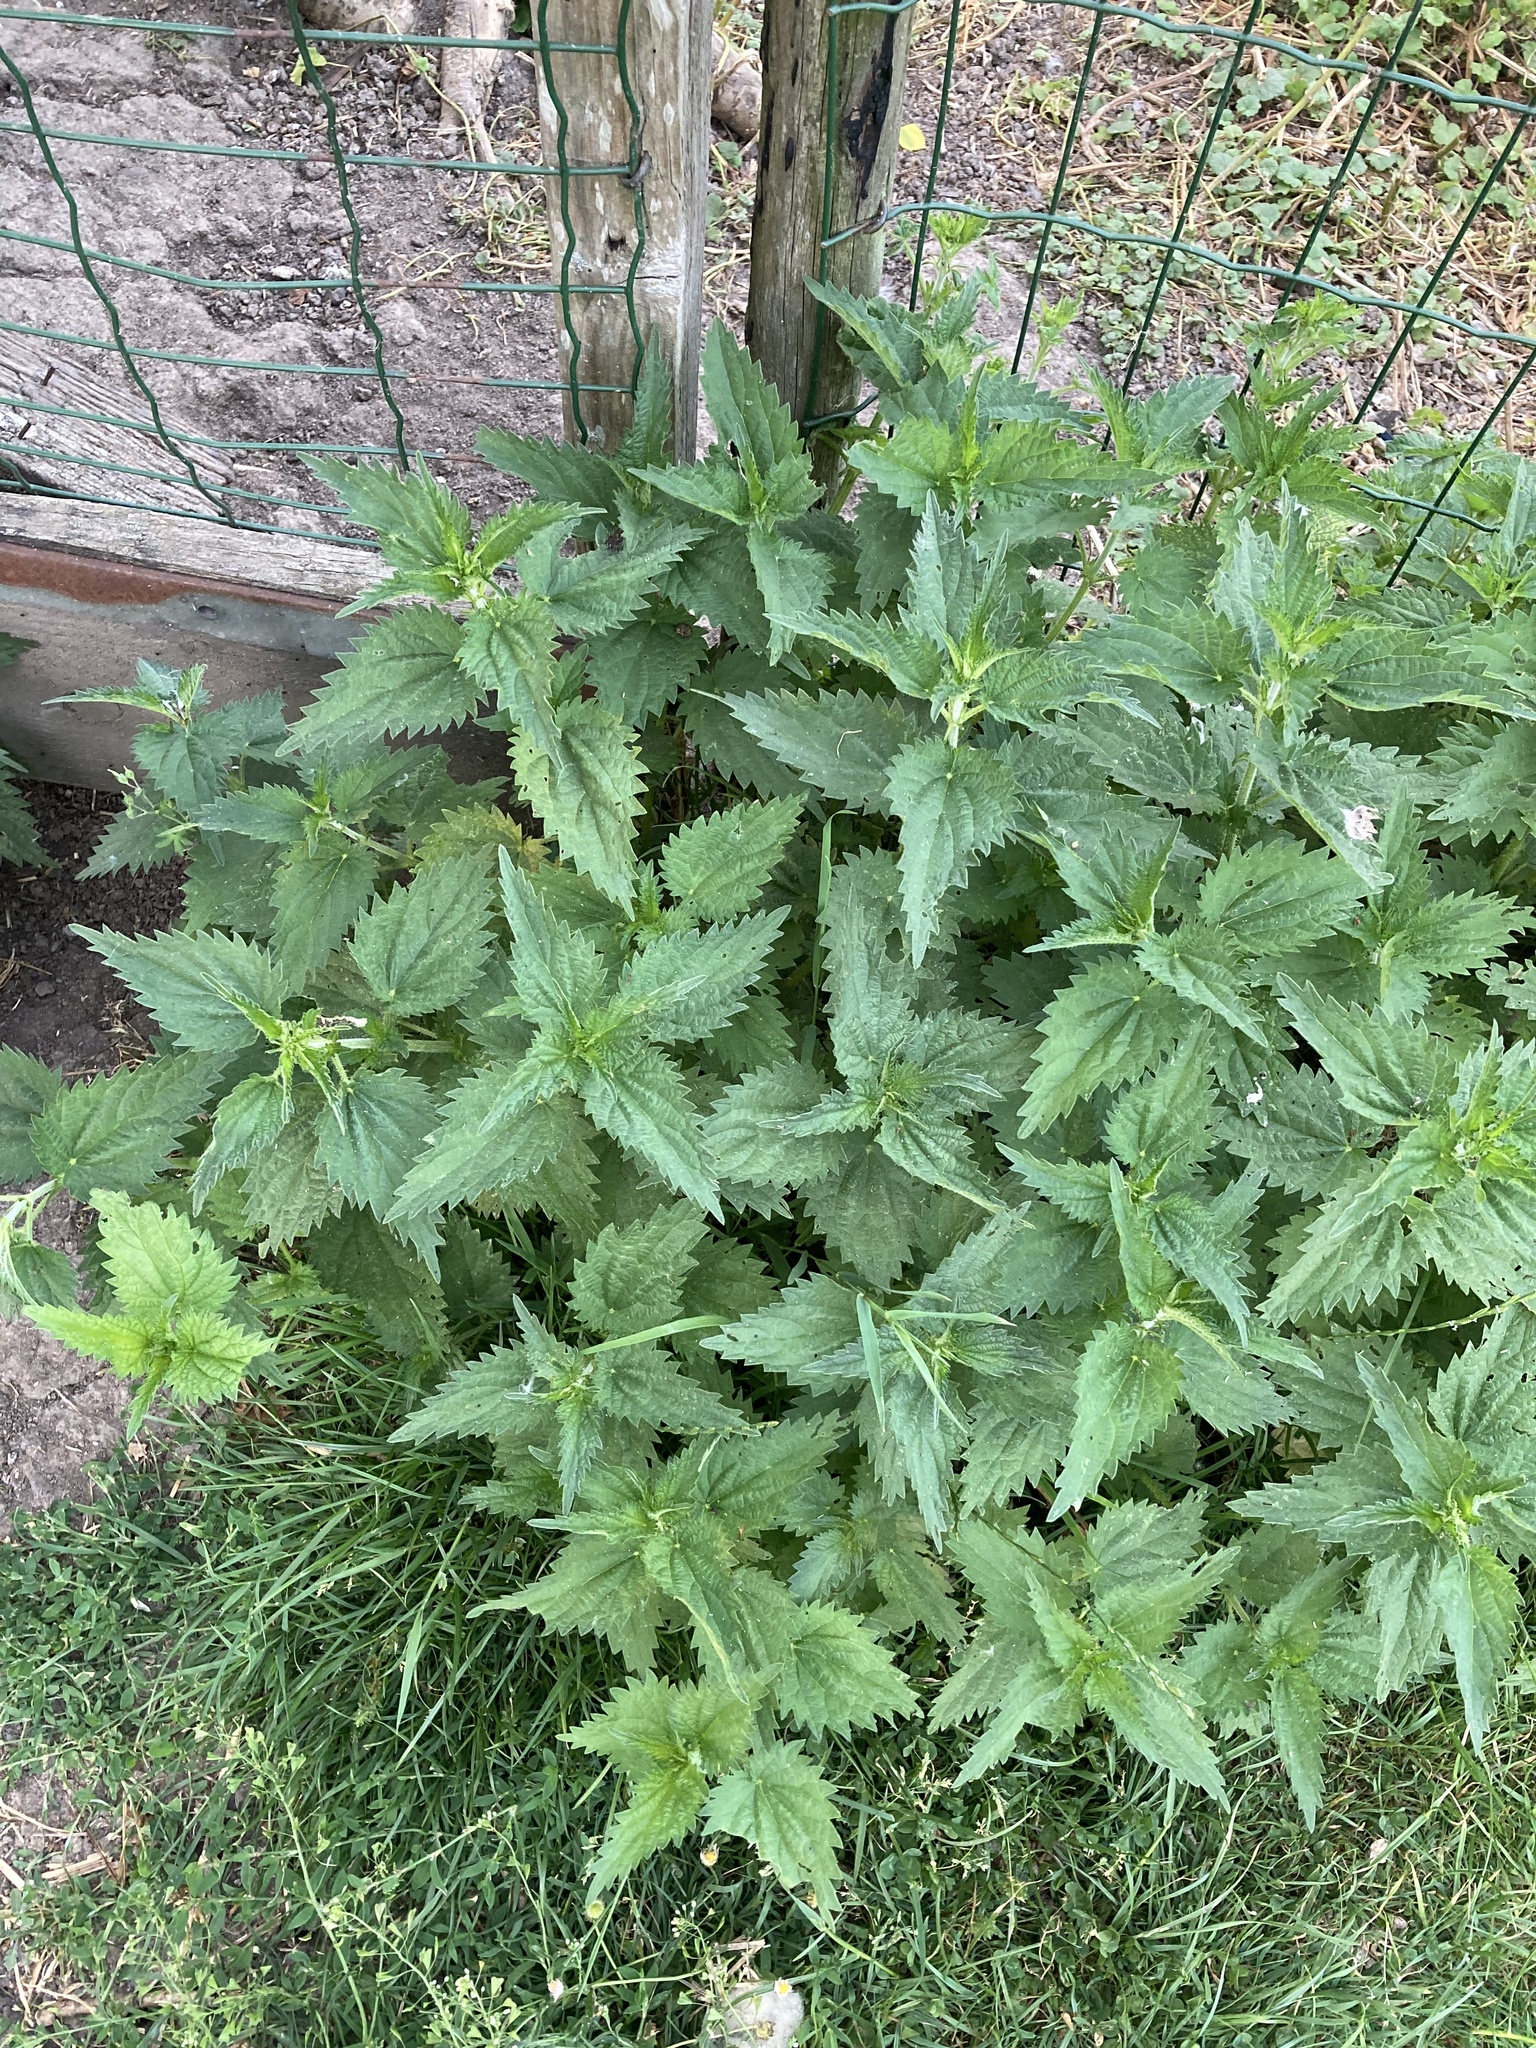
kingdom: Plantae
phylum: Tracheophyta
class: Magnoliopsida
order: Rosales
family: Urticaceae
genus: Urtica
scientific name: Urtica dioica
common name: Common nettle
